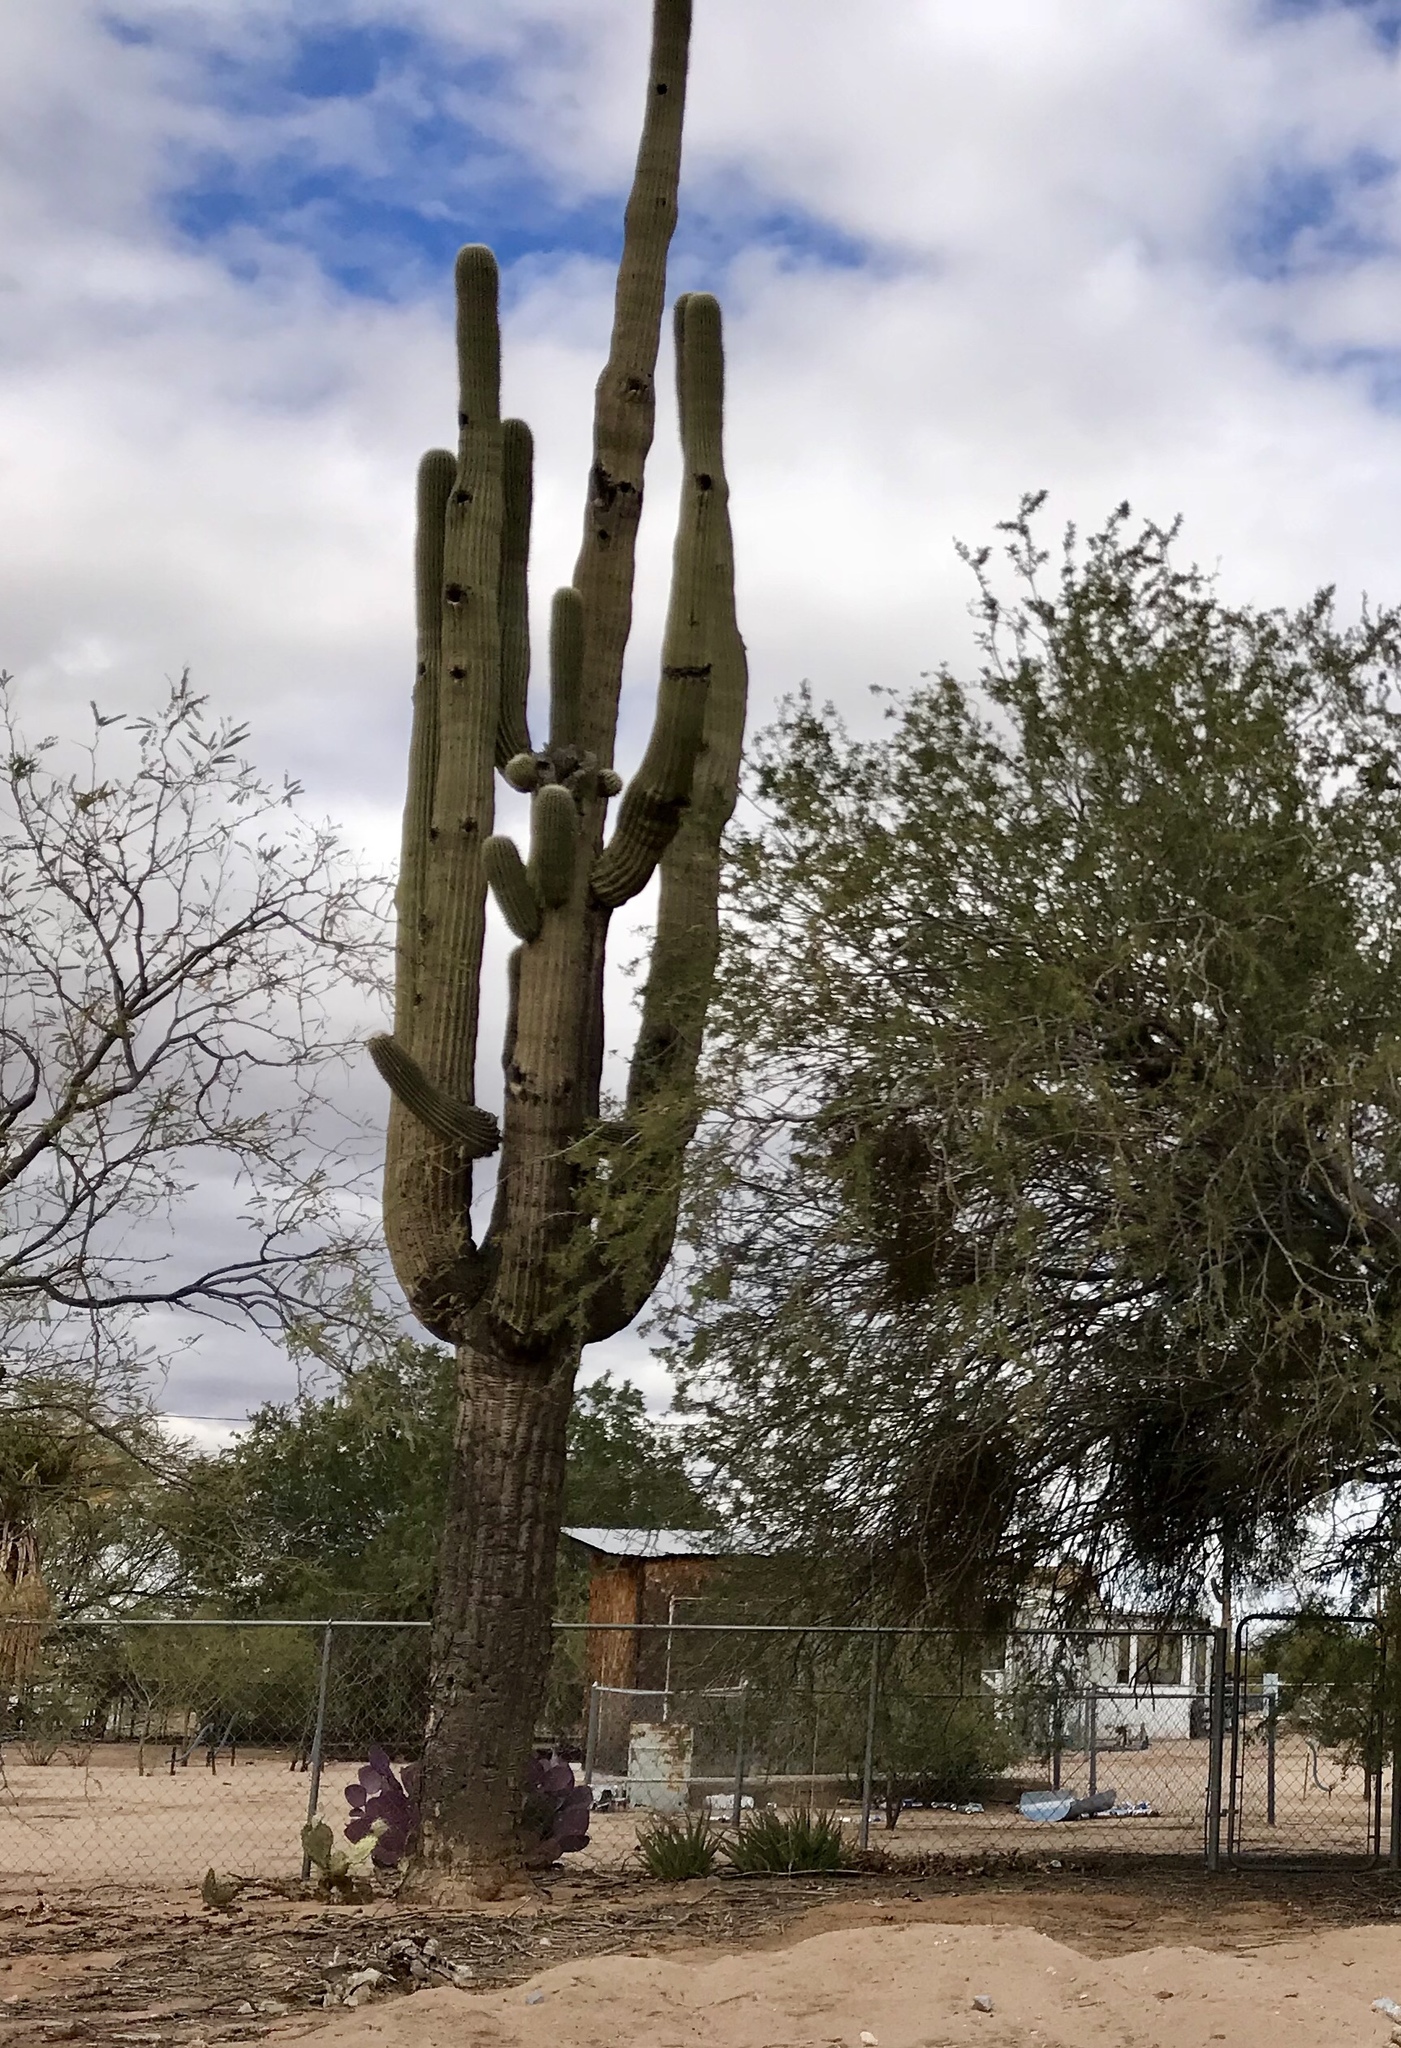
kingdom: Plantae
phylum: Tracheophyta
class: Magnoliopsida
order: Caryophyllales
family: Cactaceae
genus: Carnegiea
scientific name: Carnegiea gigantea
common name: Saguaro
